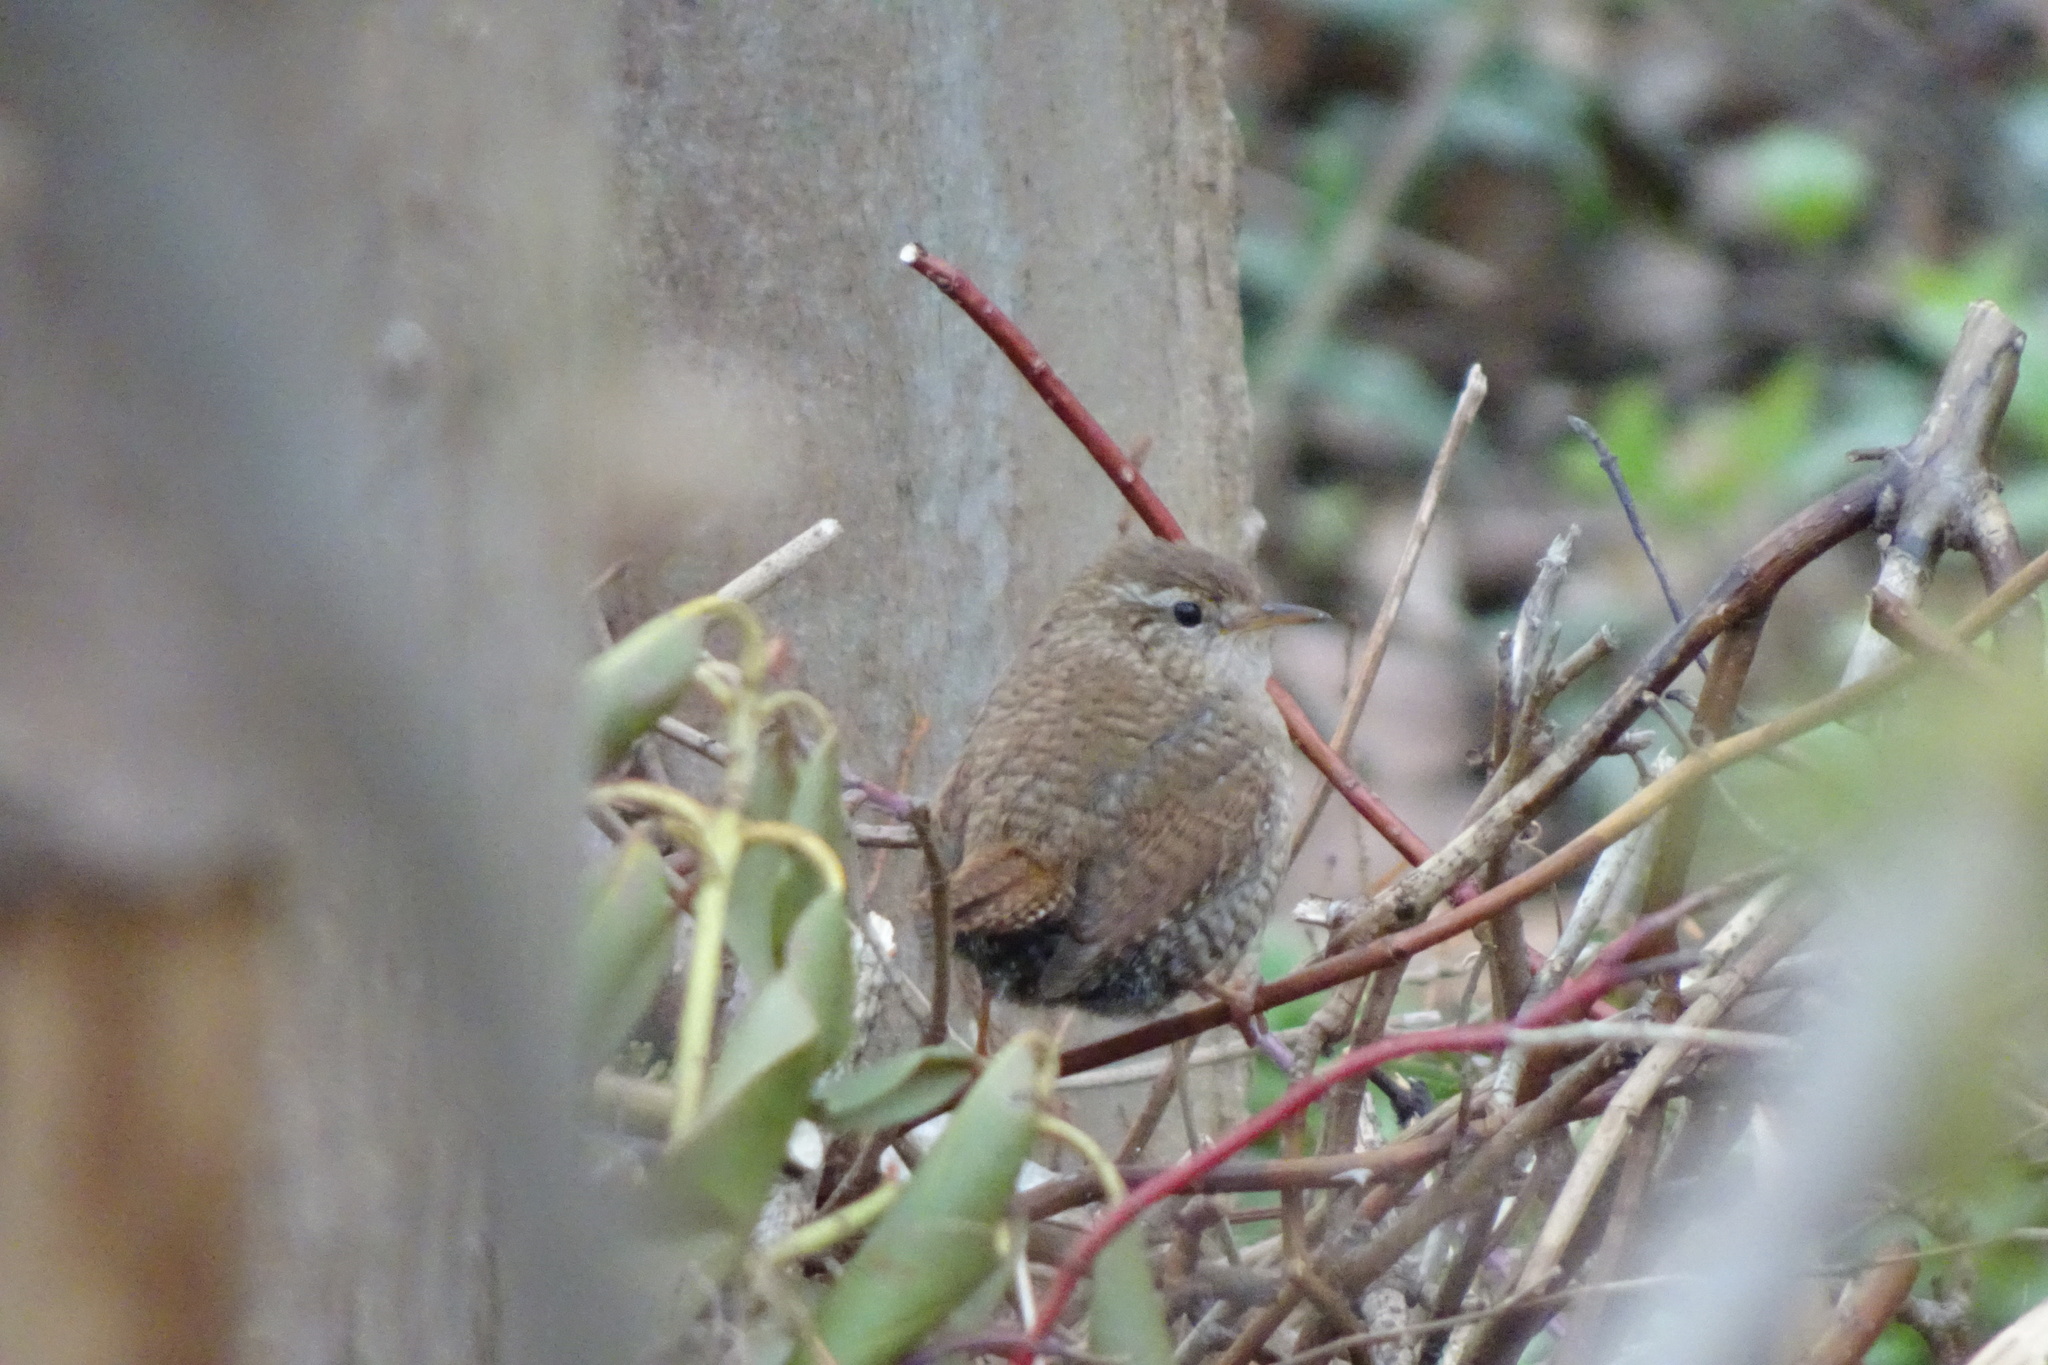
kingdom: Animalia
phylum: Chordata
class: Aves
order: Passeriformes
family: Troglodytidae
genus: Troglodytes
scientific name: Troglodytes troglodytes
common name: Eurasian wren
